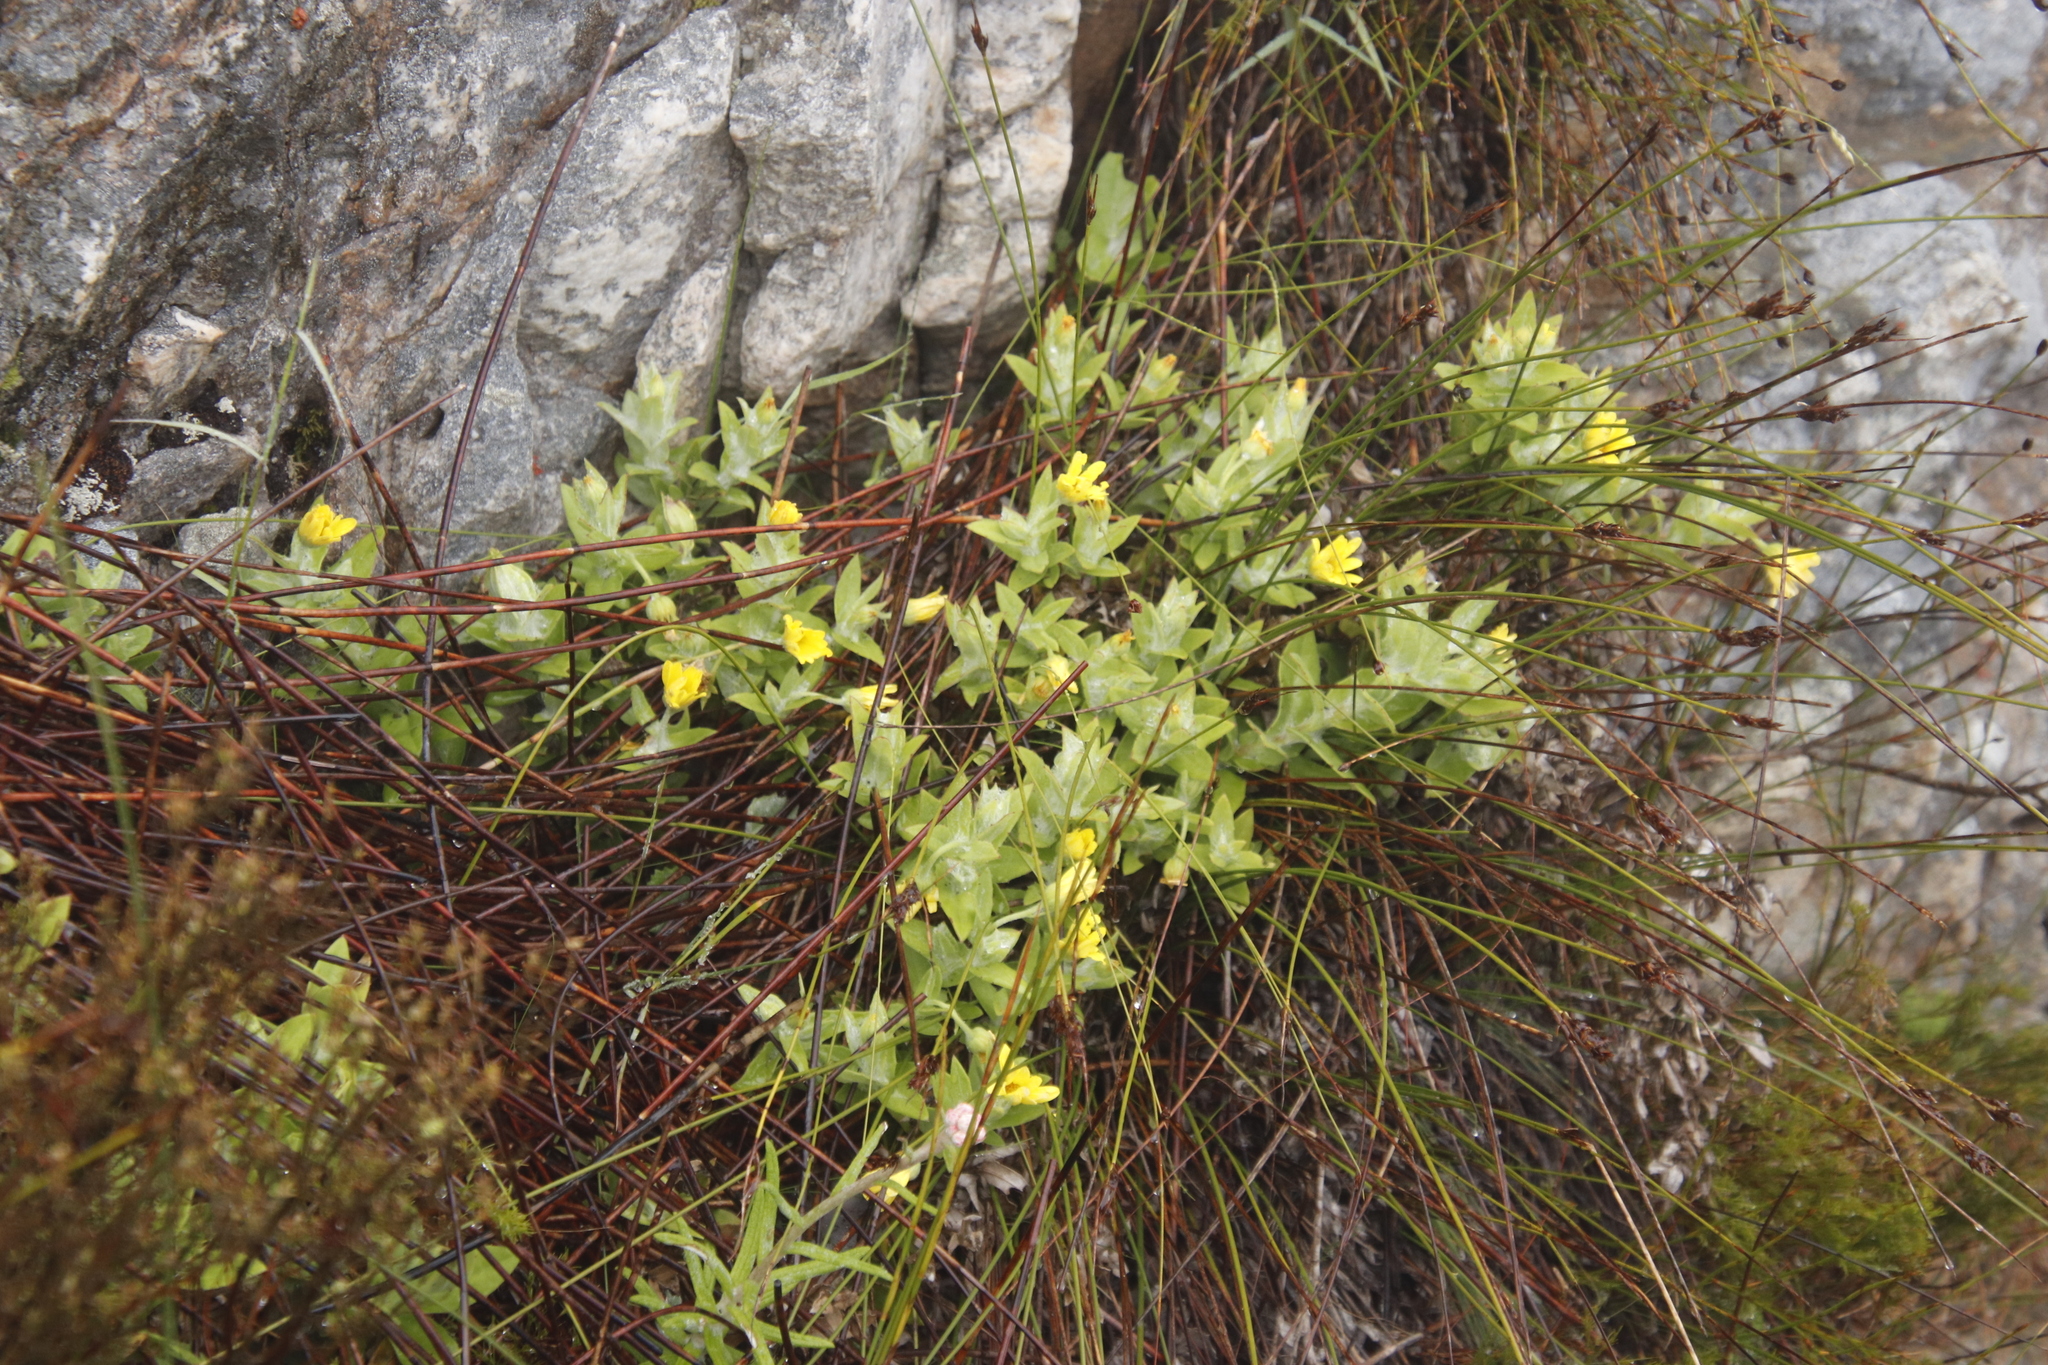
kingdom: Plantae
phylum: Tracheophyta
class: Magnoliopsida
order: Asterales
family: Asteraceae
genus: Osteospermum
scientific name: Osteospermum ilicifolium
